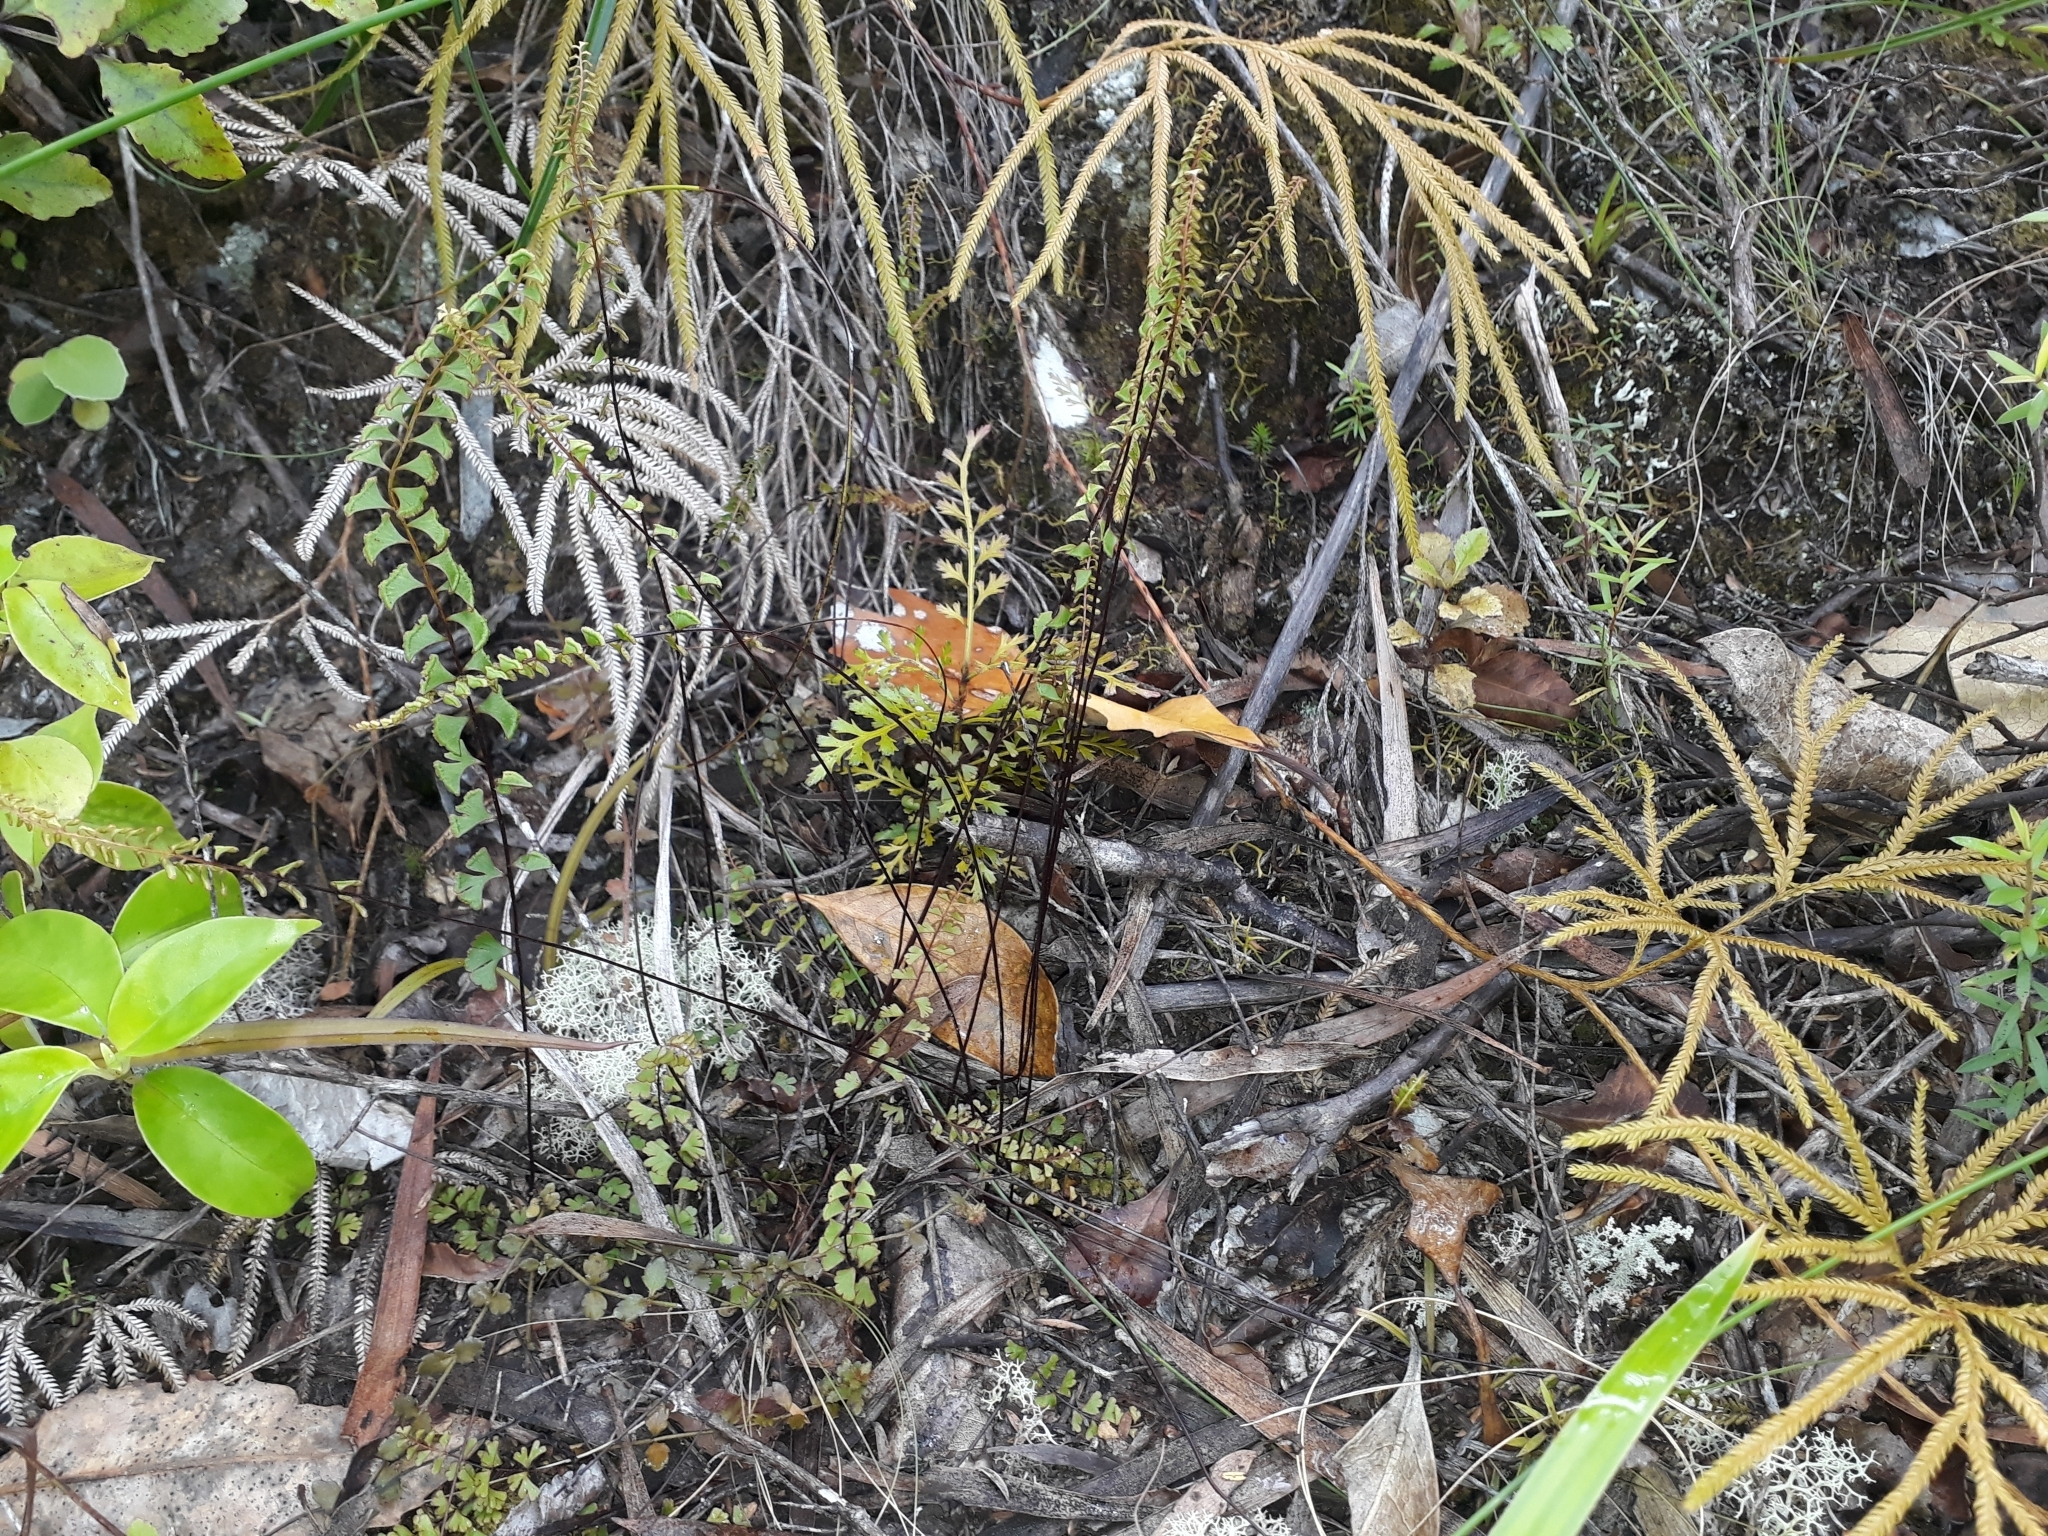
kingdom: Plantae
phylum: Tracheophyta
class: Polypodiopsida
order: Polypodiales
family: Lindsaeaceae
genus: Lindsaea
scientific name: Lindsaea linearis
